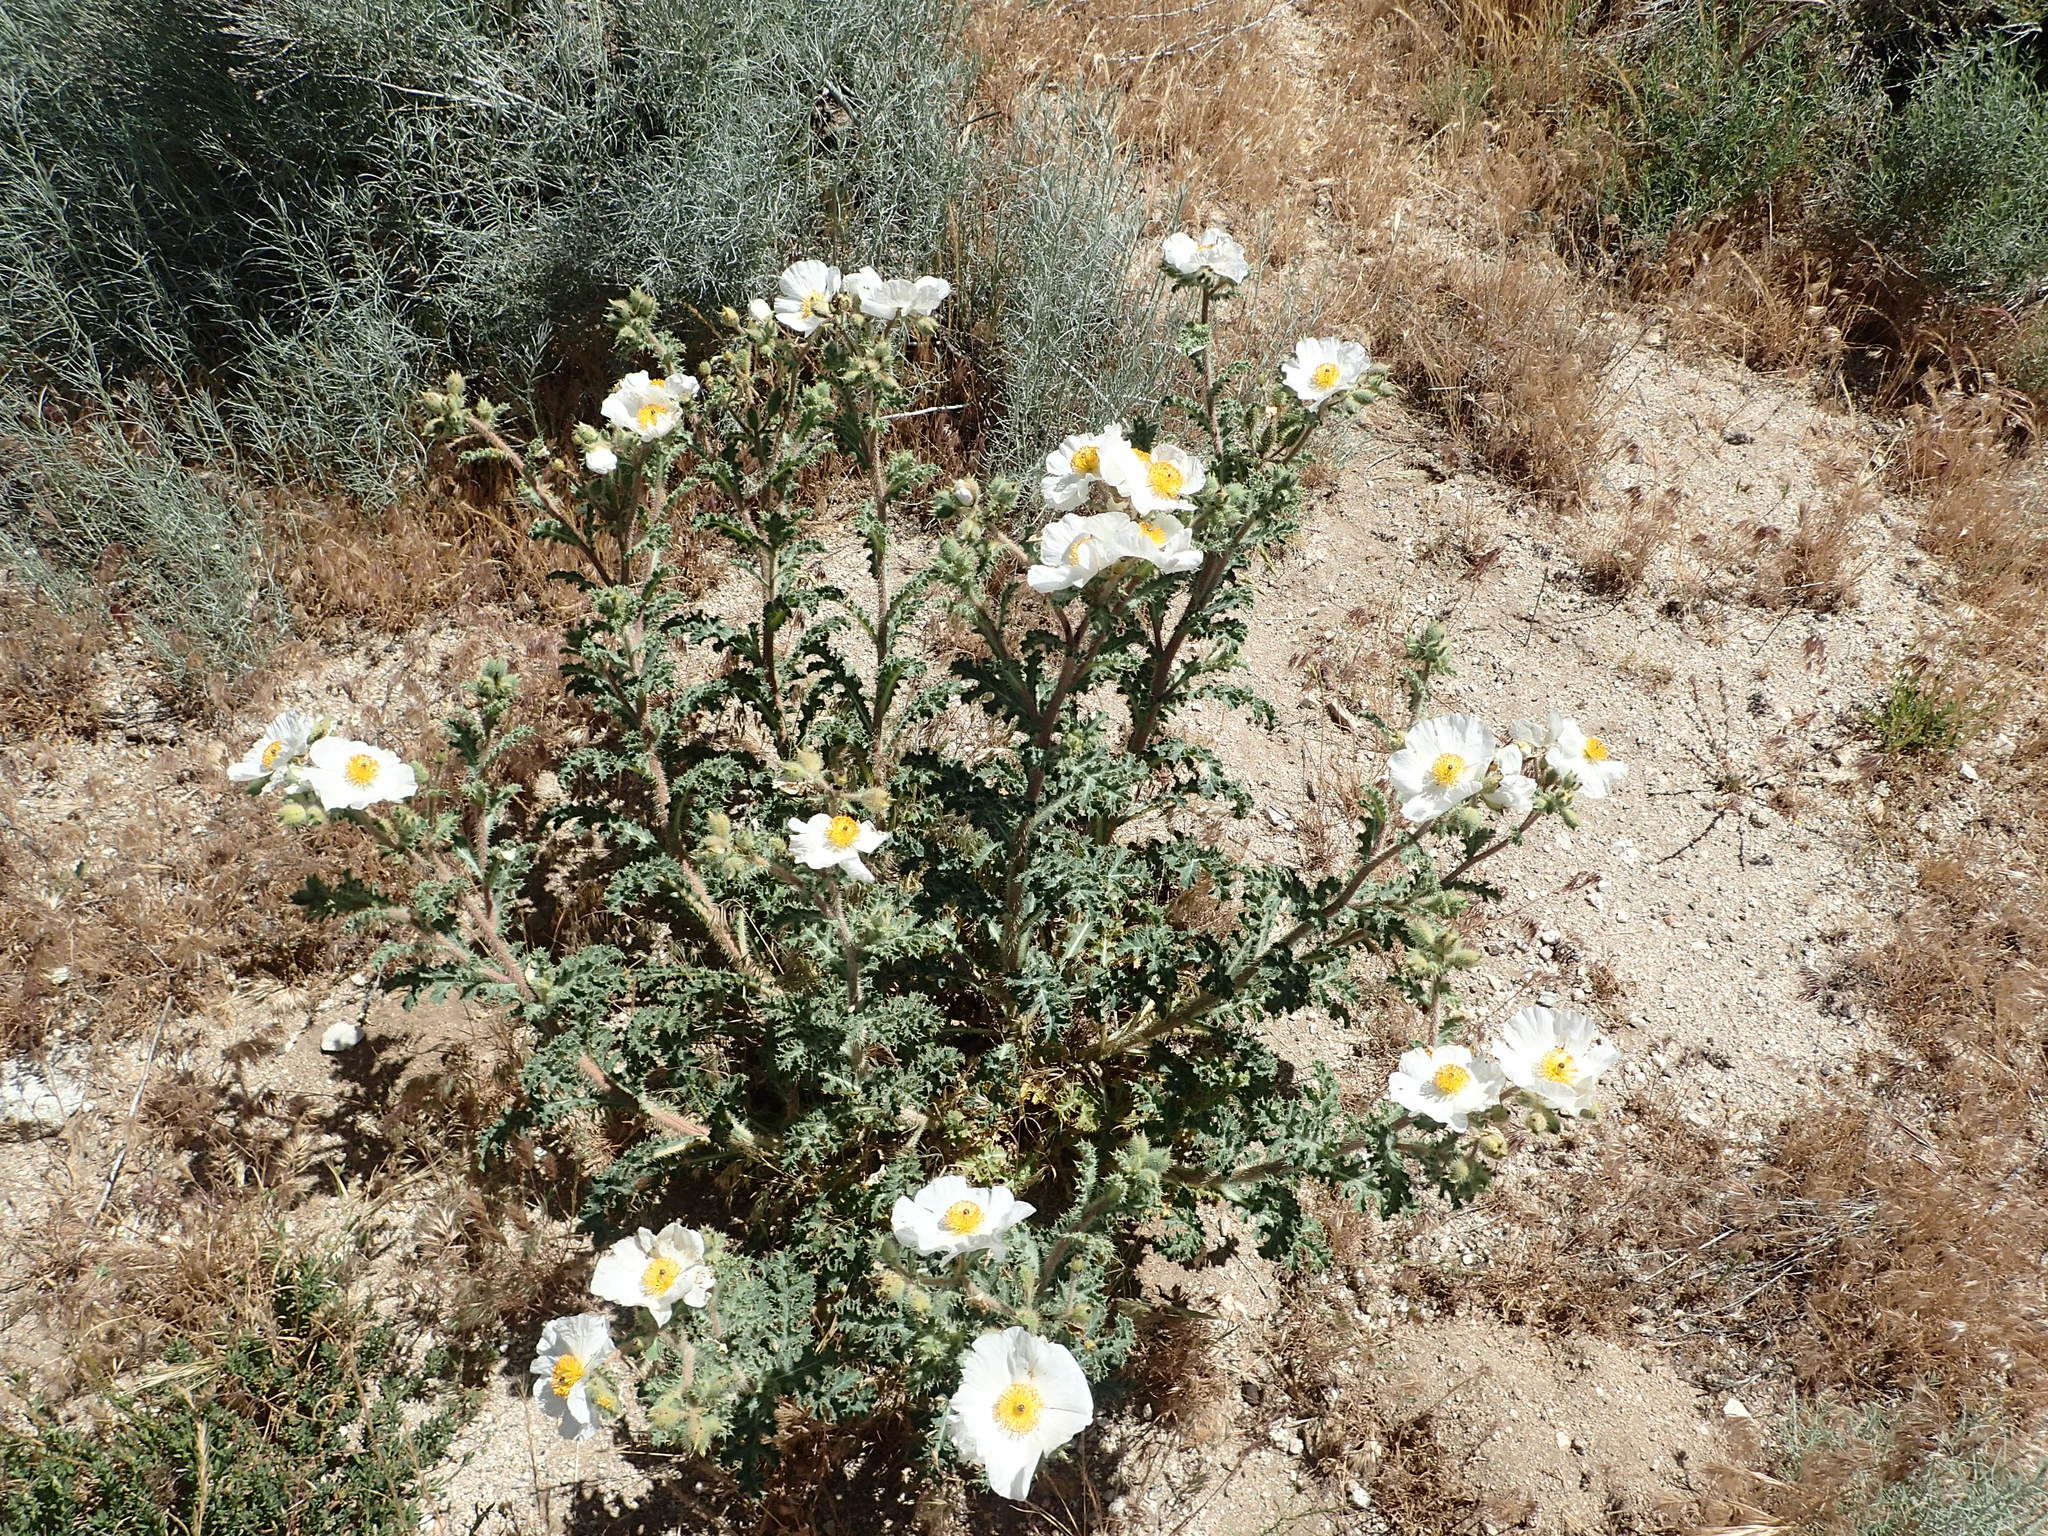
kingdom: Plantae
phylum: Tracheophyta
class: Magnoliopsida
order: Ranunculales
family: Papaveraceae
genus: Argemone
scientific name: Argemone munita
